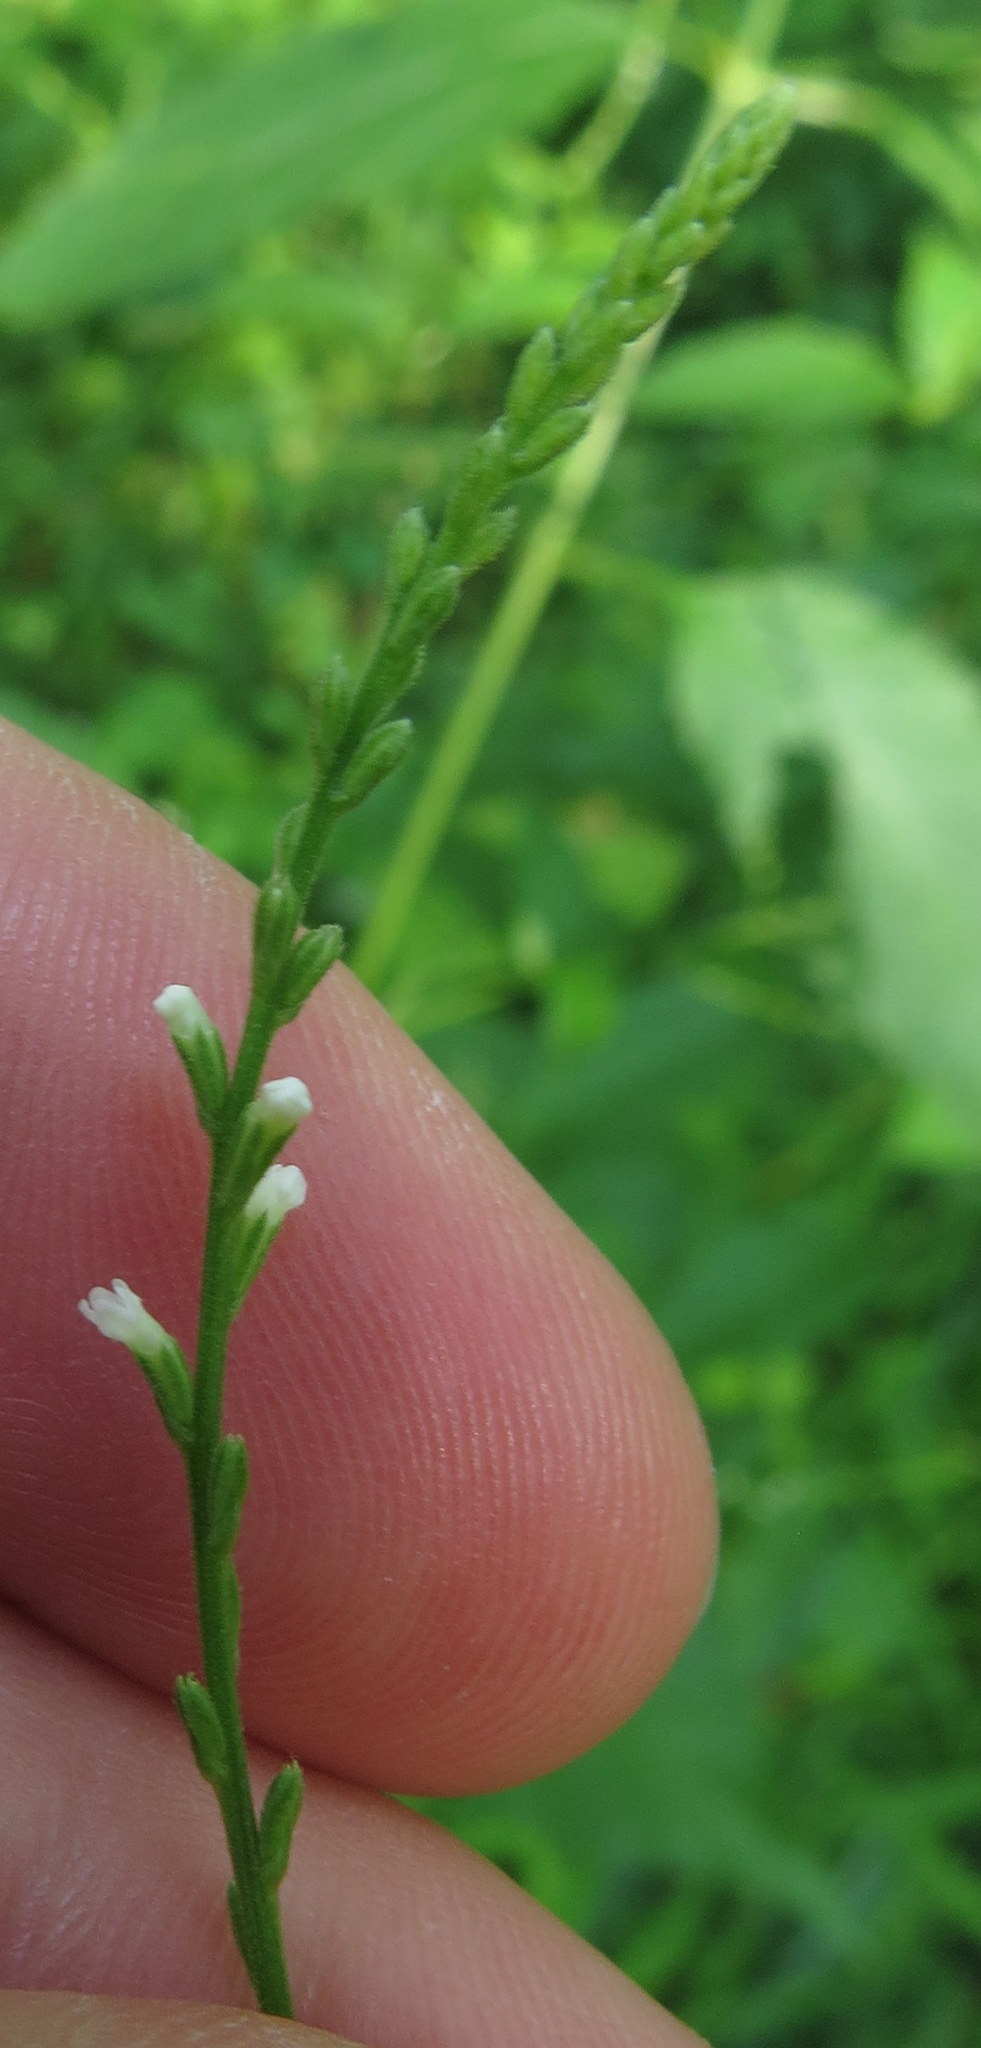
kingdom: Plantae
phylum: Tracheophyta
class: Magnoliopsida
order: Lamiales
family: Verbenaceae
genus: Verbena
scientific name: Verbena urticifolia
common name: Nettle-leaved vervain
